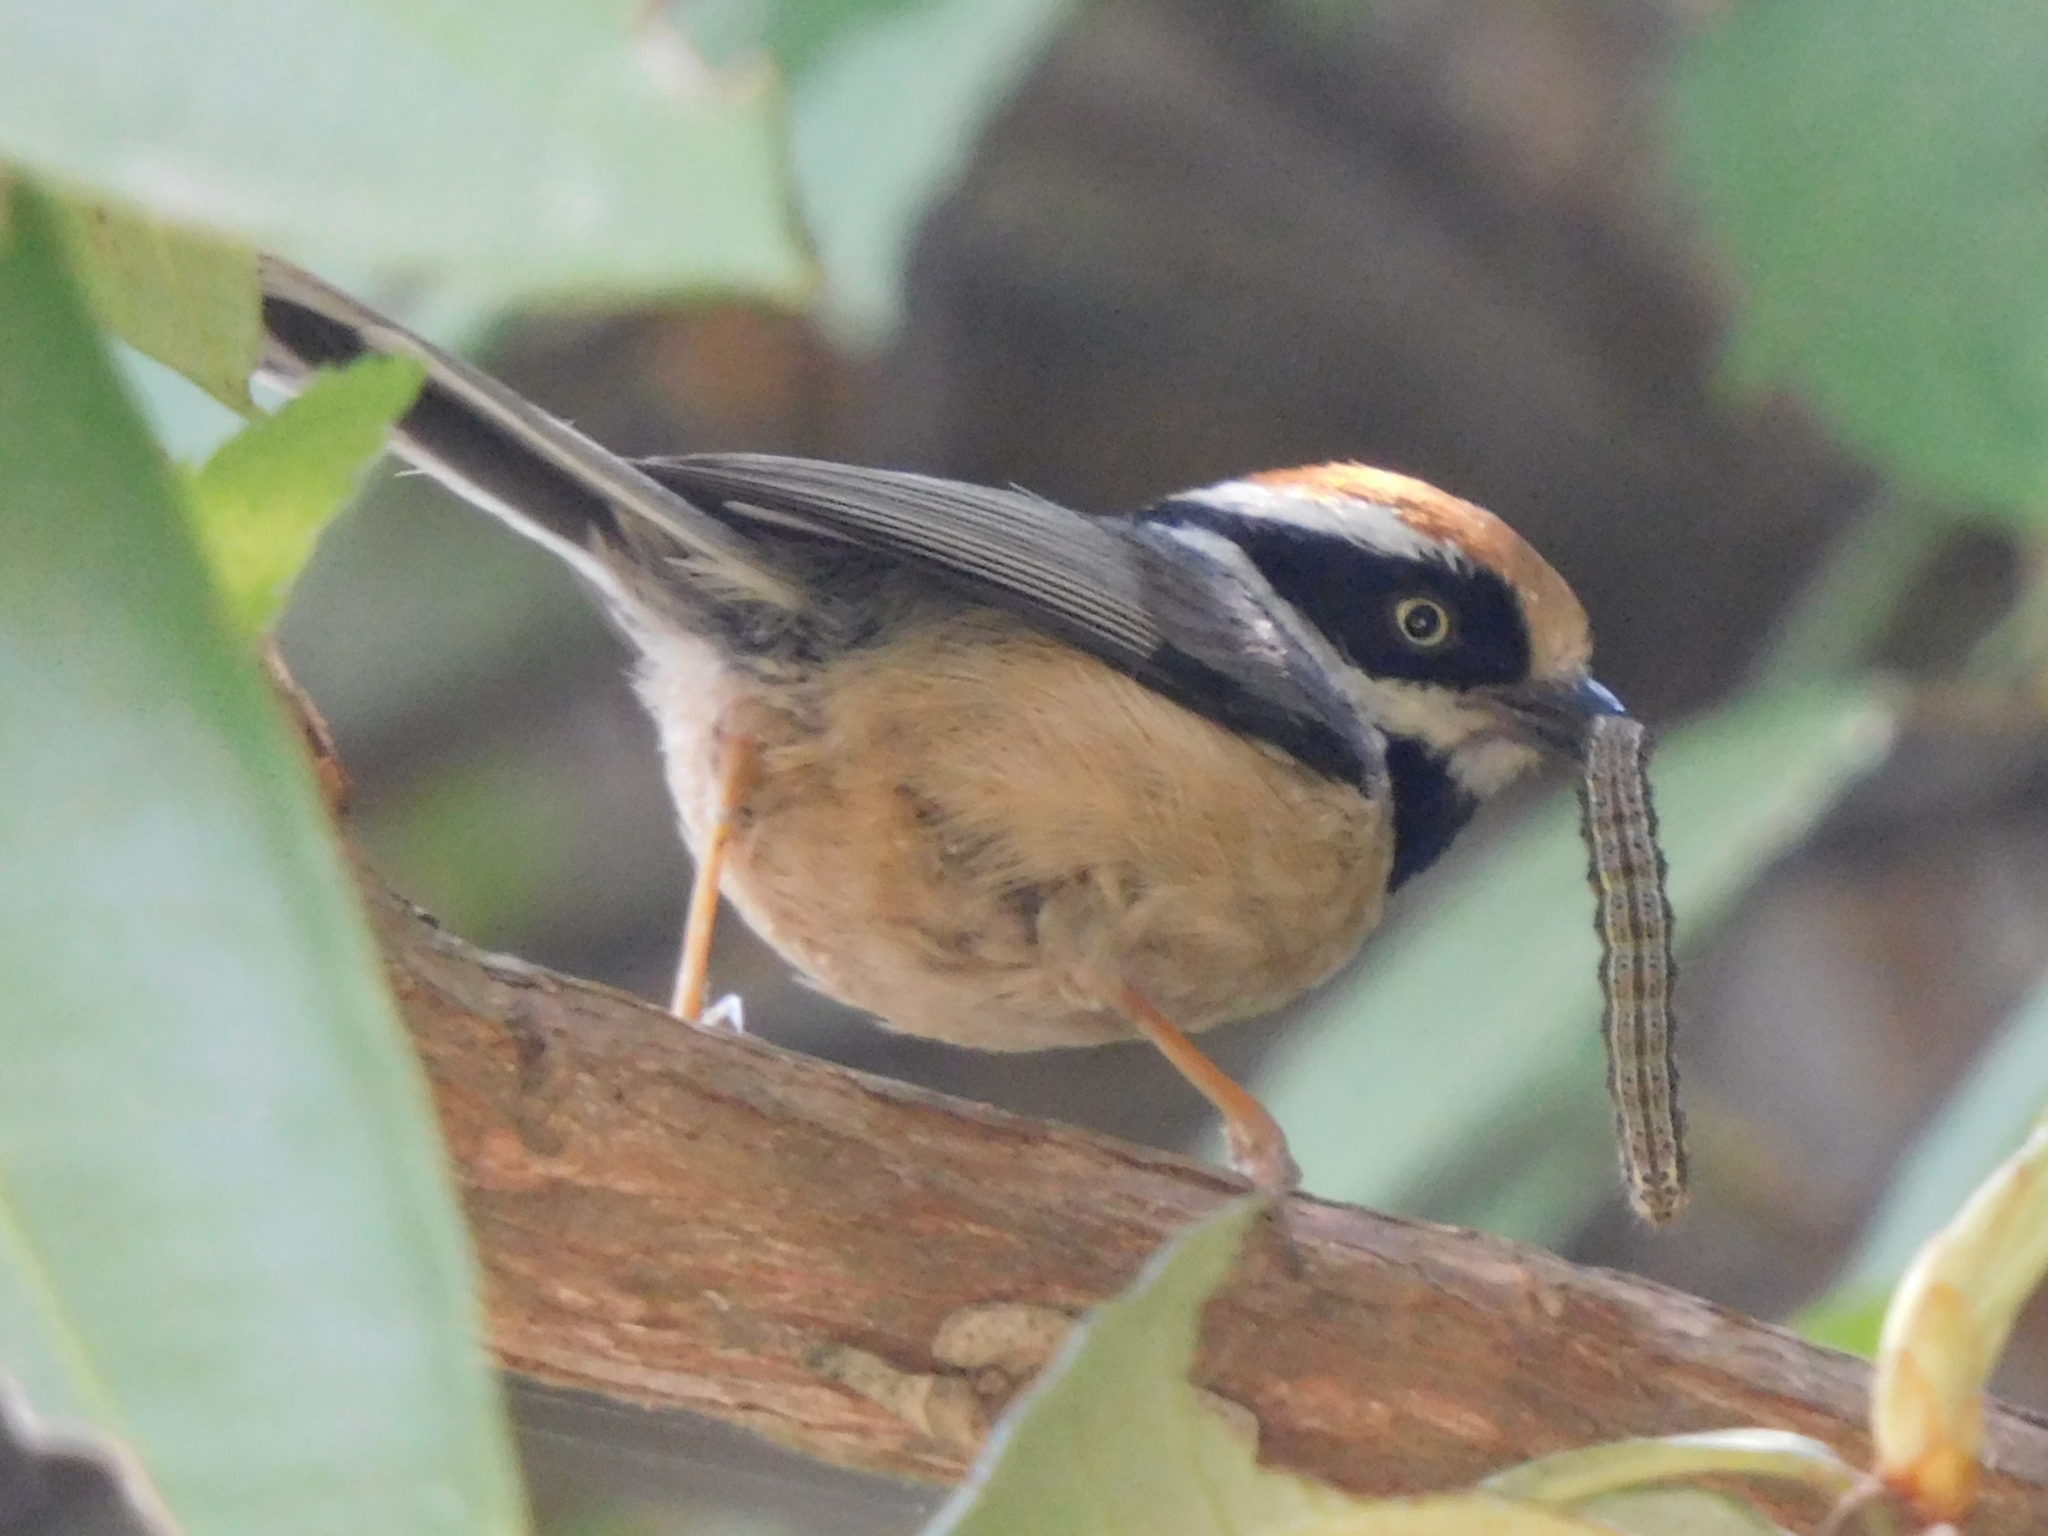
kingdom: Animalia
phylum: Chordata
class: Aves
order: Passeriformes
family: Aegithalidae
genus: Aegithalos
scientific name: Aegithalos concinnus
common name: Black-throated bushtit
